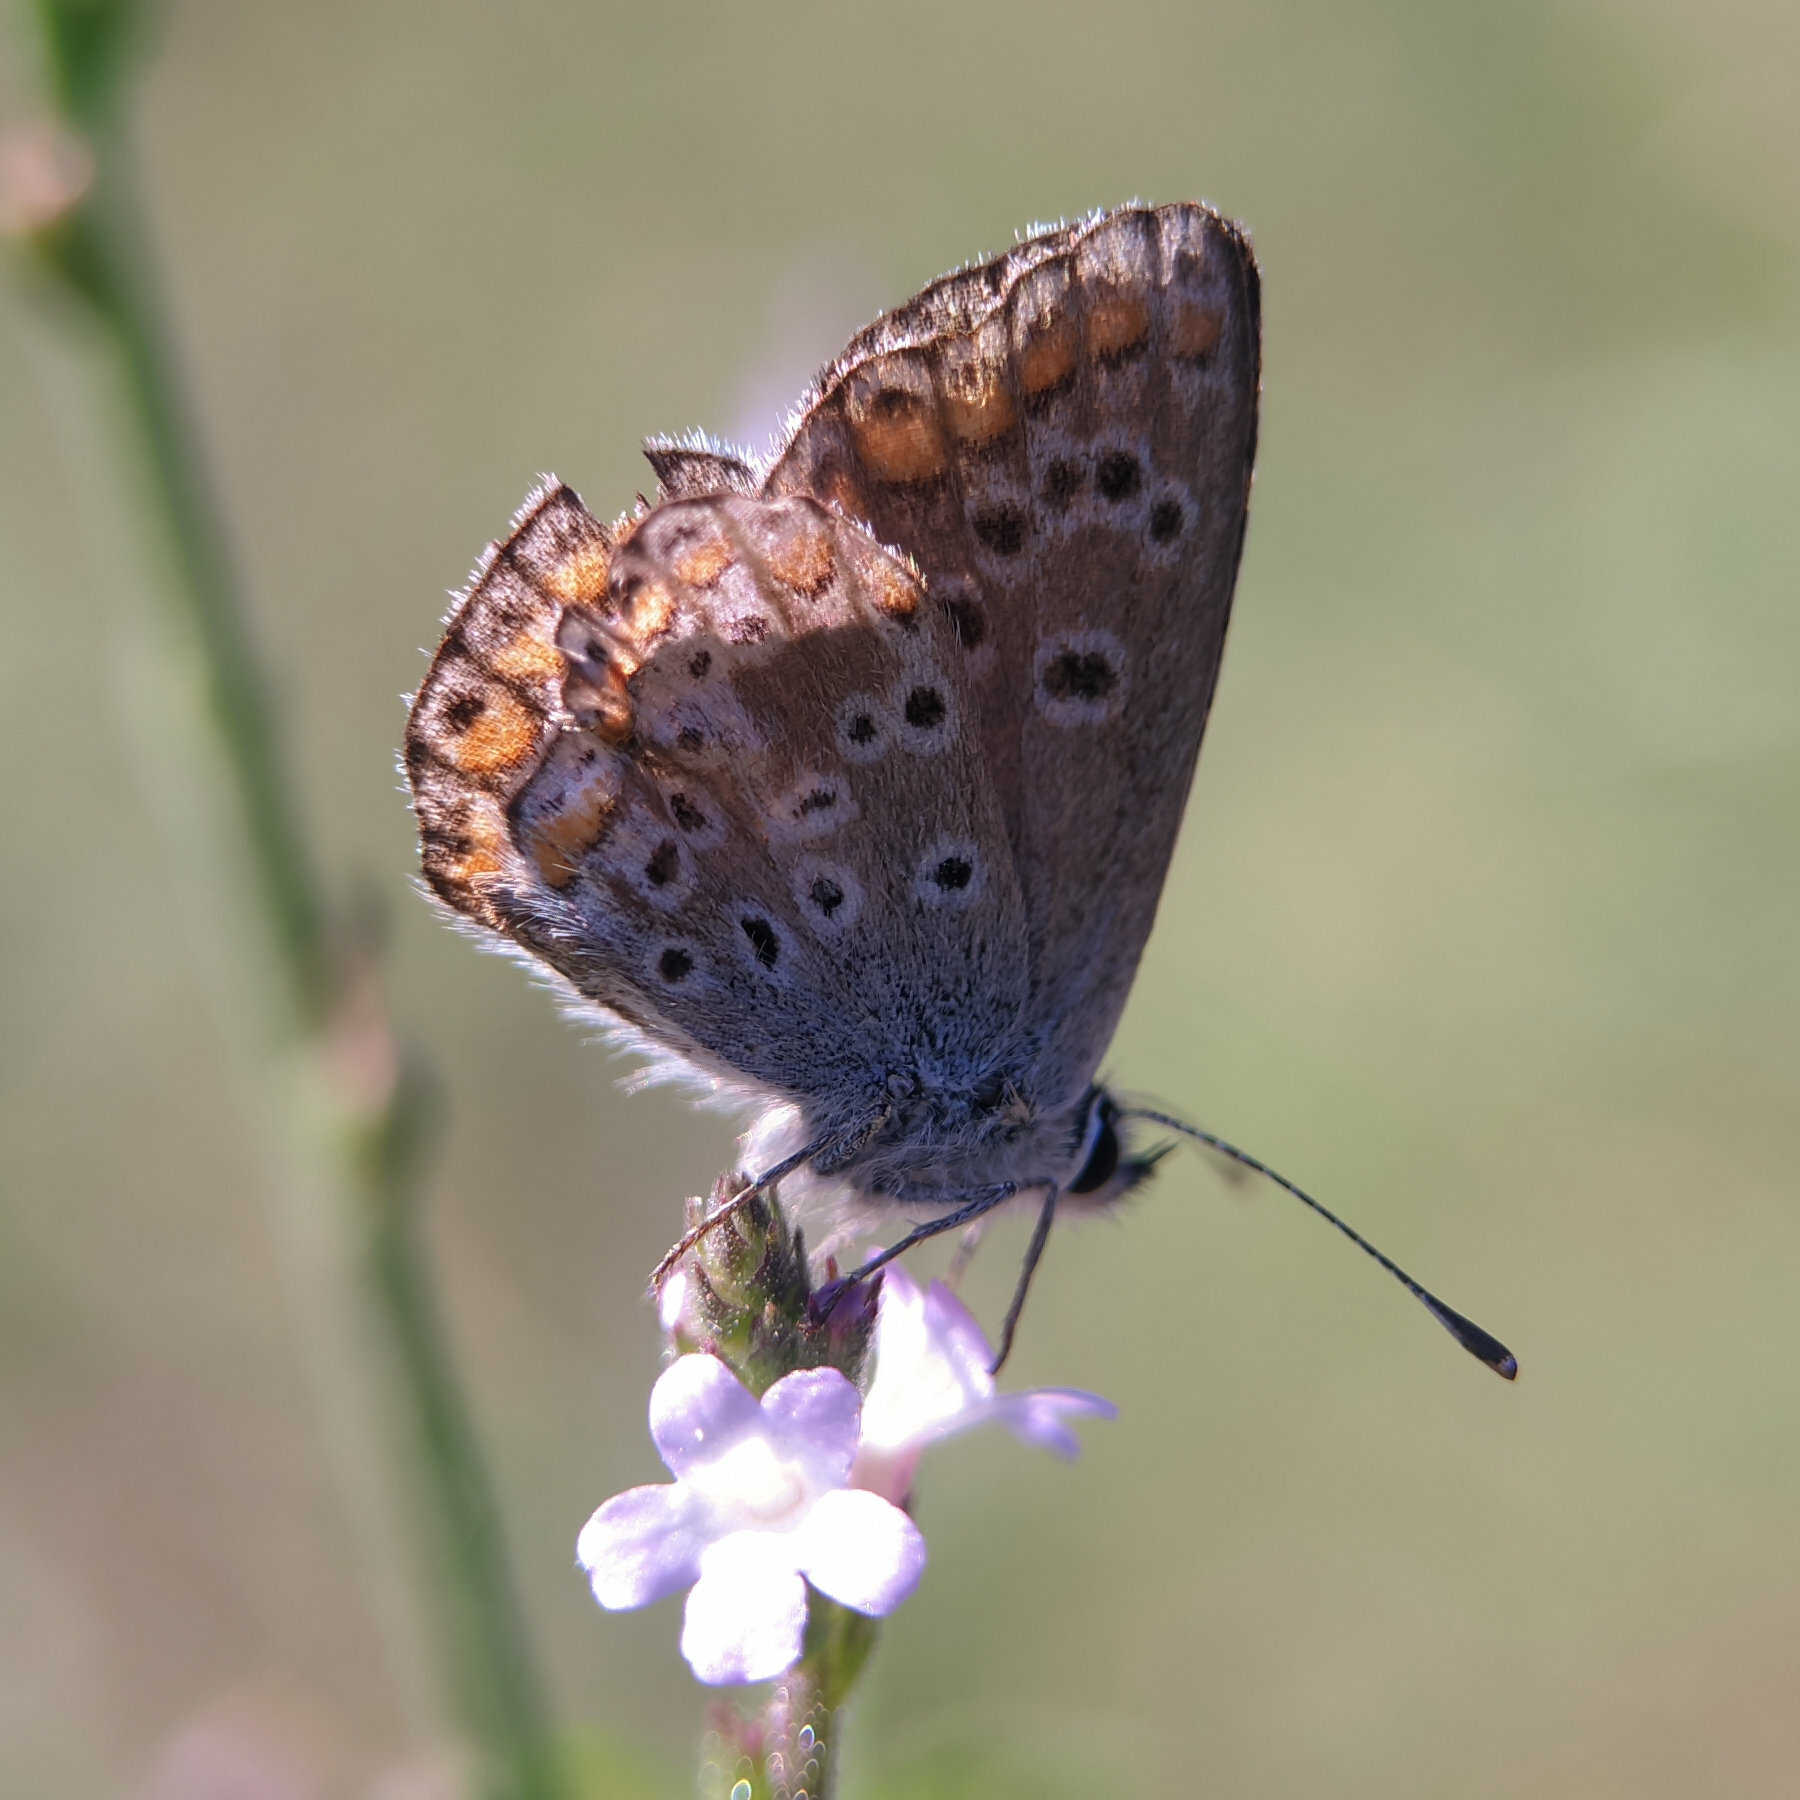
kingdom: Animalia
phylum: Arthropoda
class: Insecta
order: Lepidoptera
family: Lycaenidae
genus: Aricia
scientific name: Aricia agestis
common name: Brown argus
